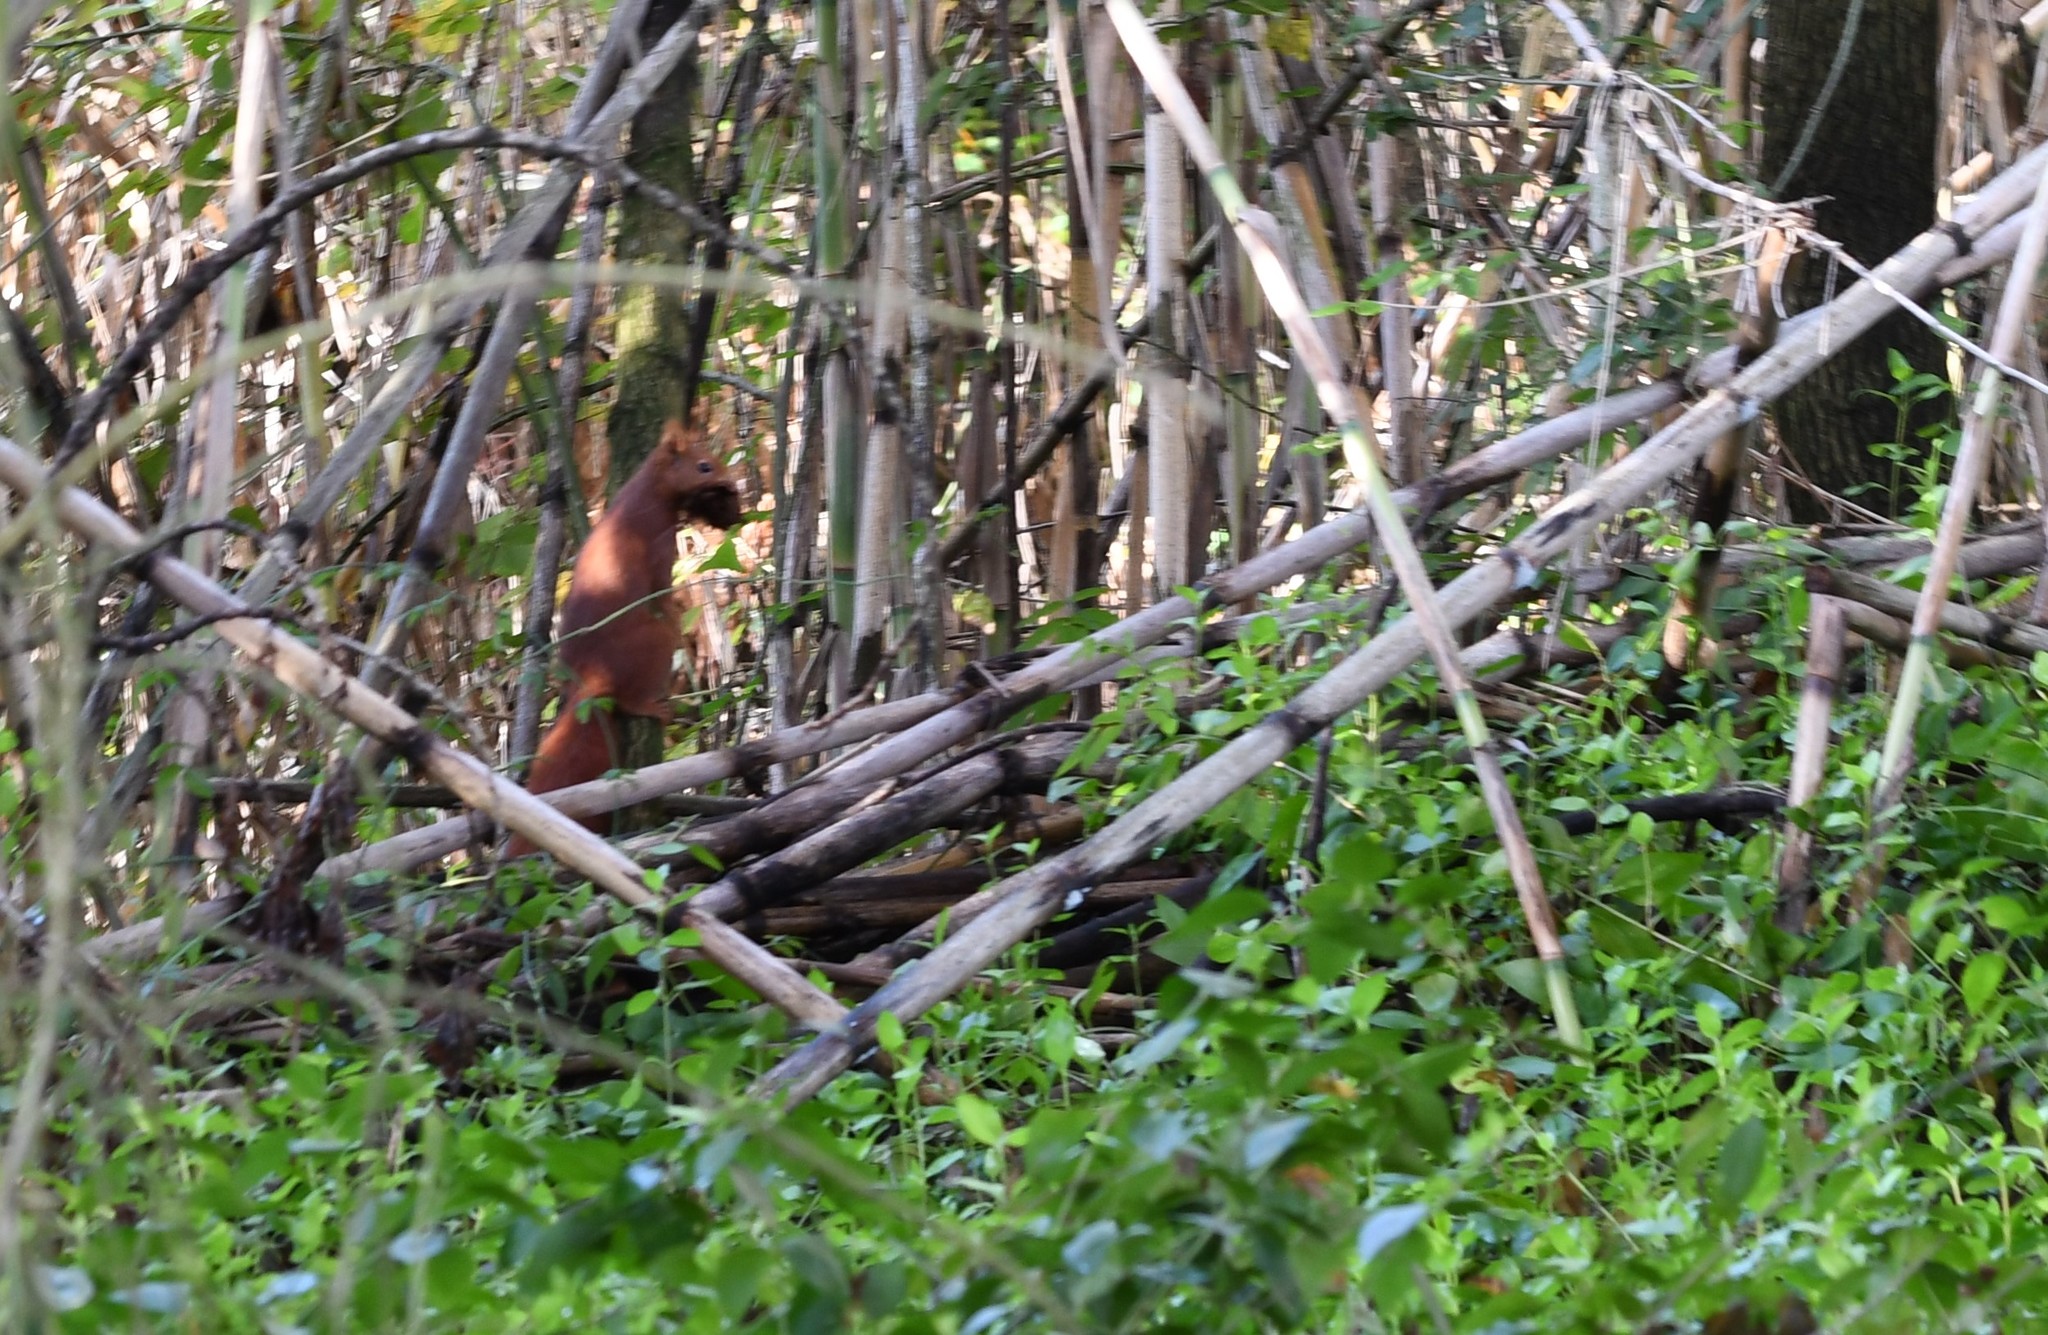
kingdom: Animalia
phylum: Chordata
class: Mammalia
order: Rodentia
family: Sciuridae
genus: Sciurus
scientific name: Sciurus vulgaris
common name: Eurasian red squirrel
